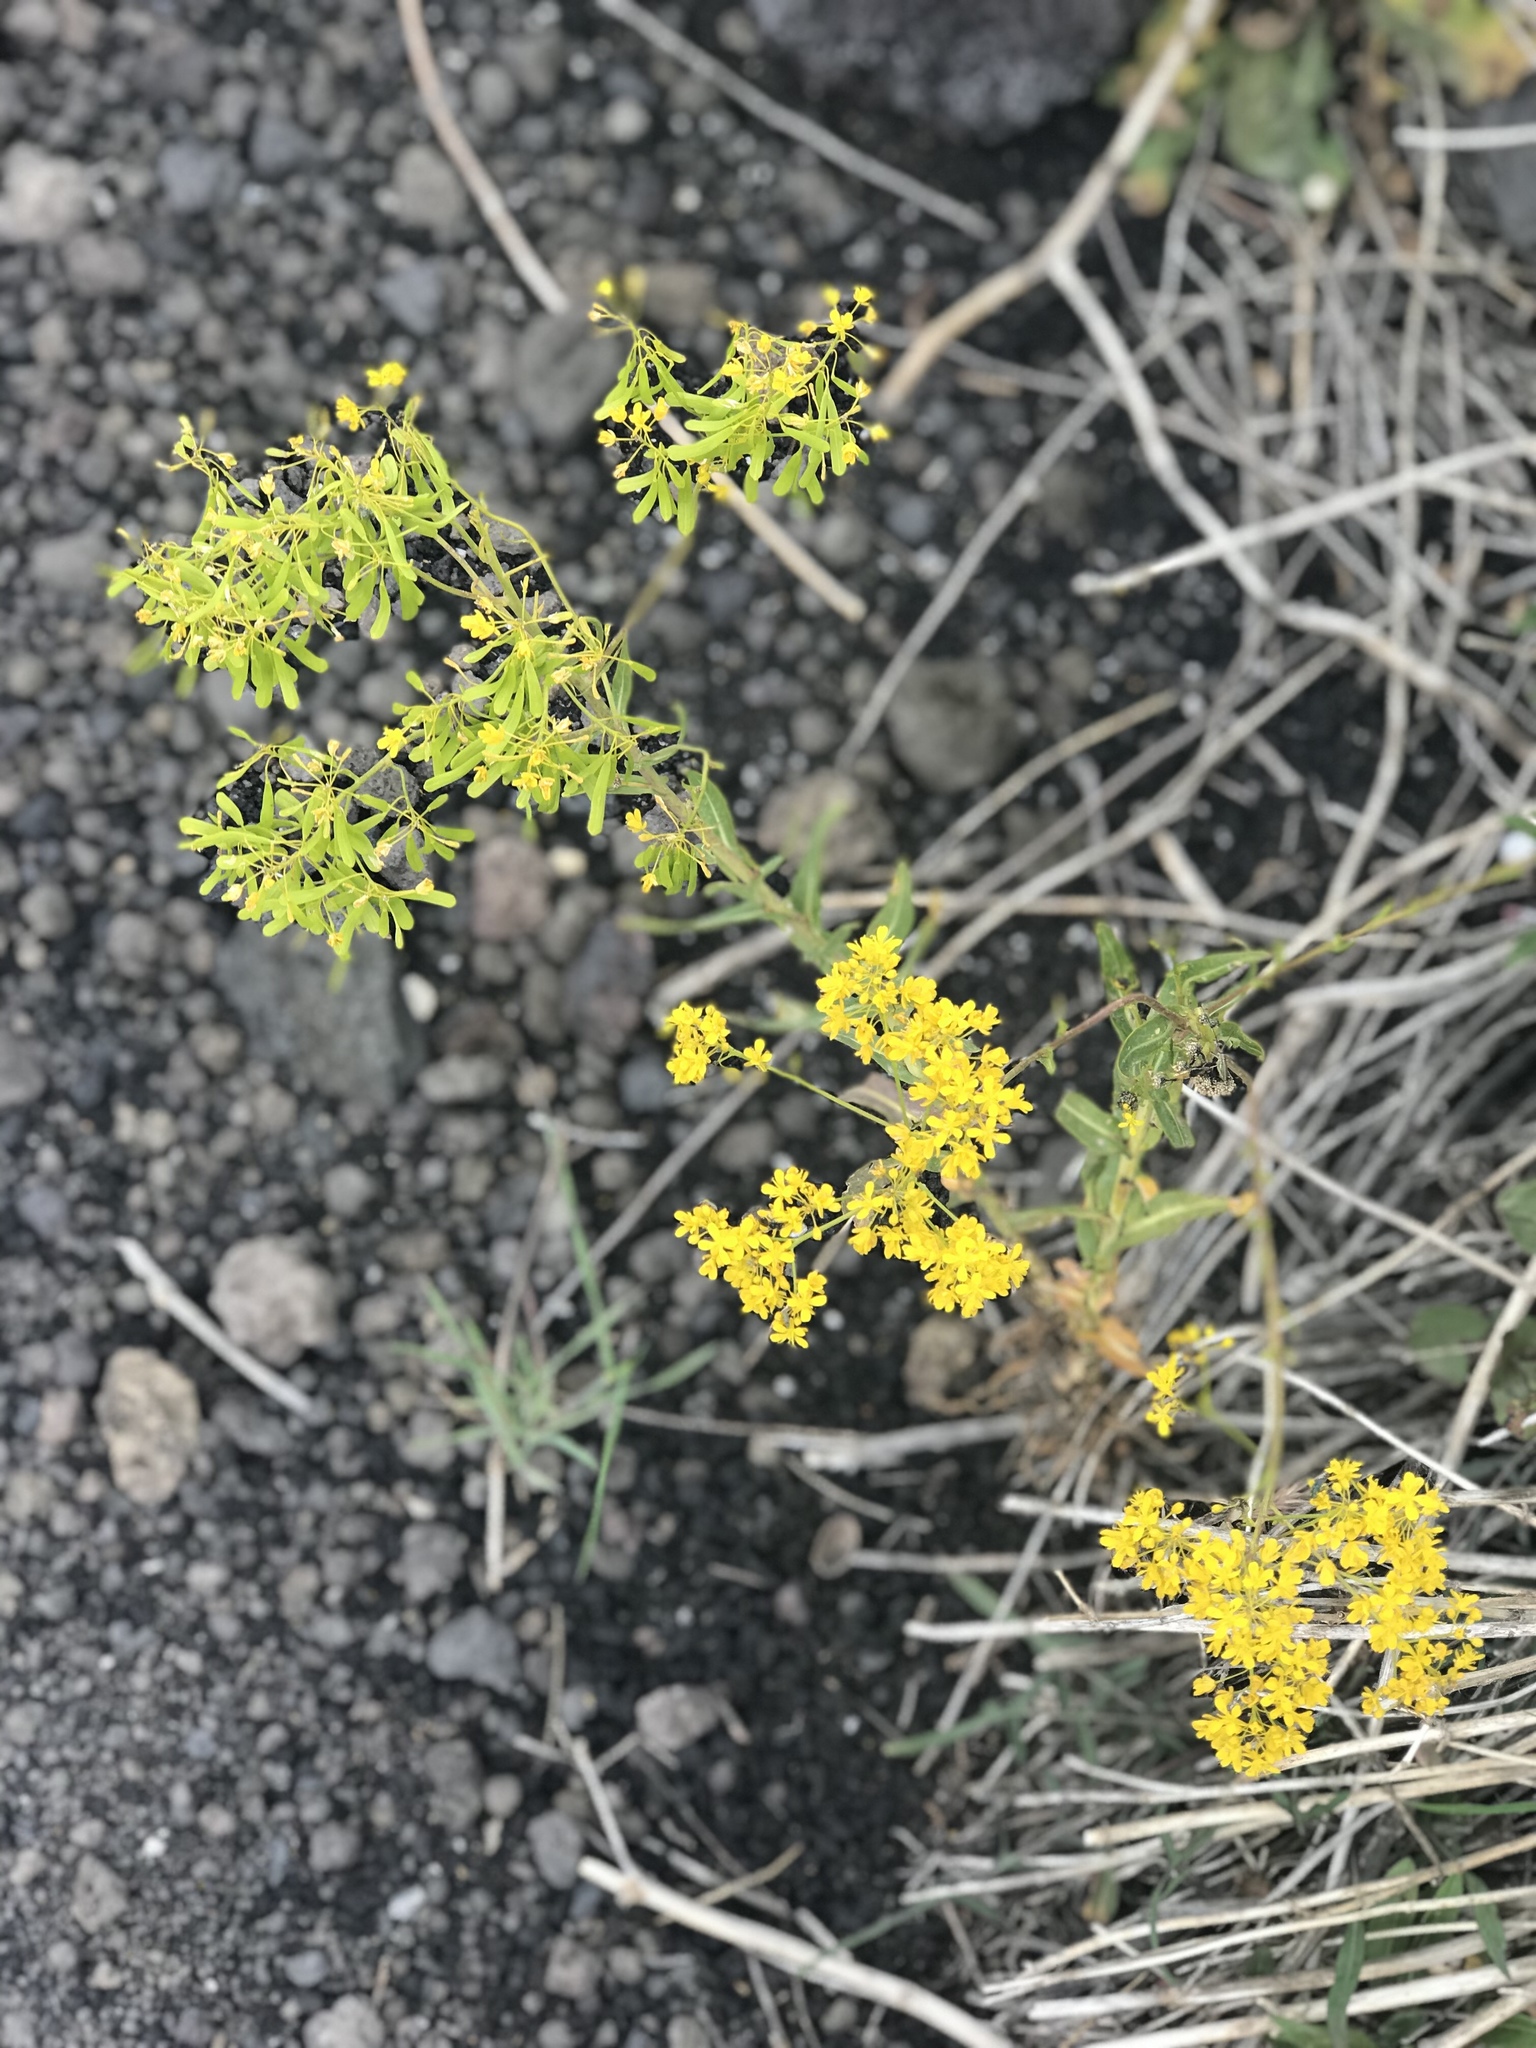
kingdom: Plantae
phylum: Tracheophyta
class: Magnoliopsida
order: Gentianales
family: Rubiaceae
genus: Galium
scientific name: Galium verum
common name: Lady's bedstraw
